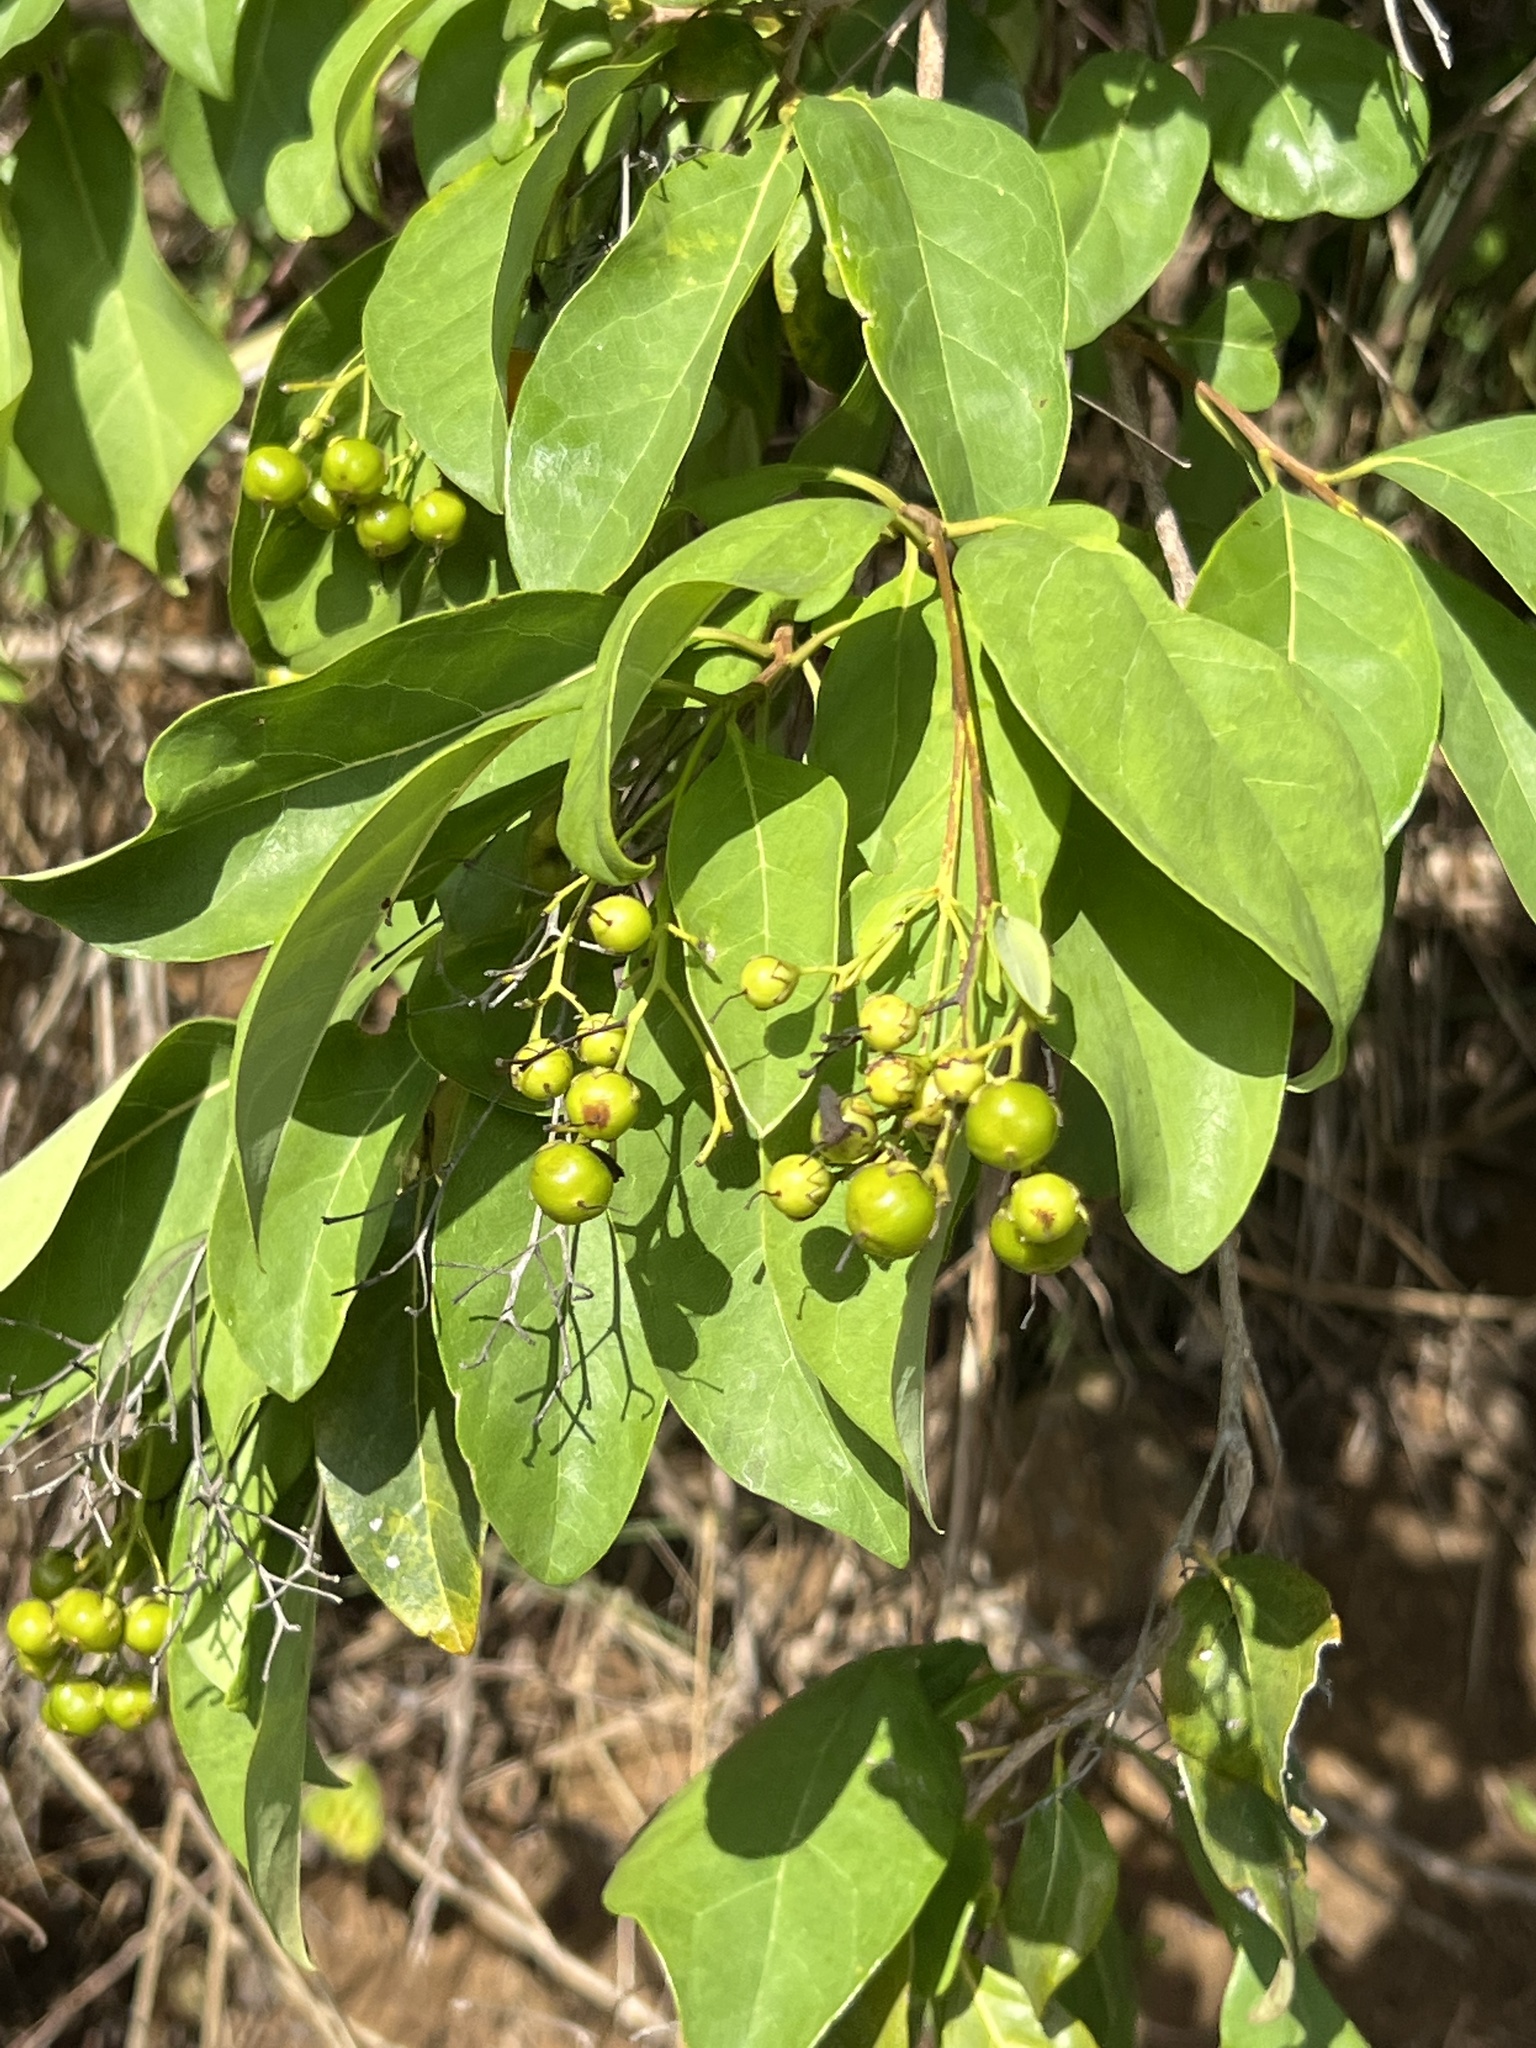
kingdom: Plantae
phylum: Tracheophyta
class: Magnoliopsida
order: Boraginales
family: Ehretiaceae
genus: Bourreria
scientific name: Bourreria succulenta
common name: Cherry
